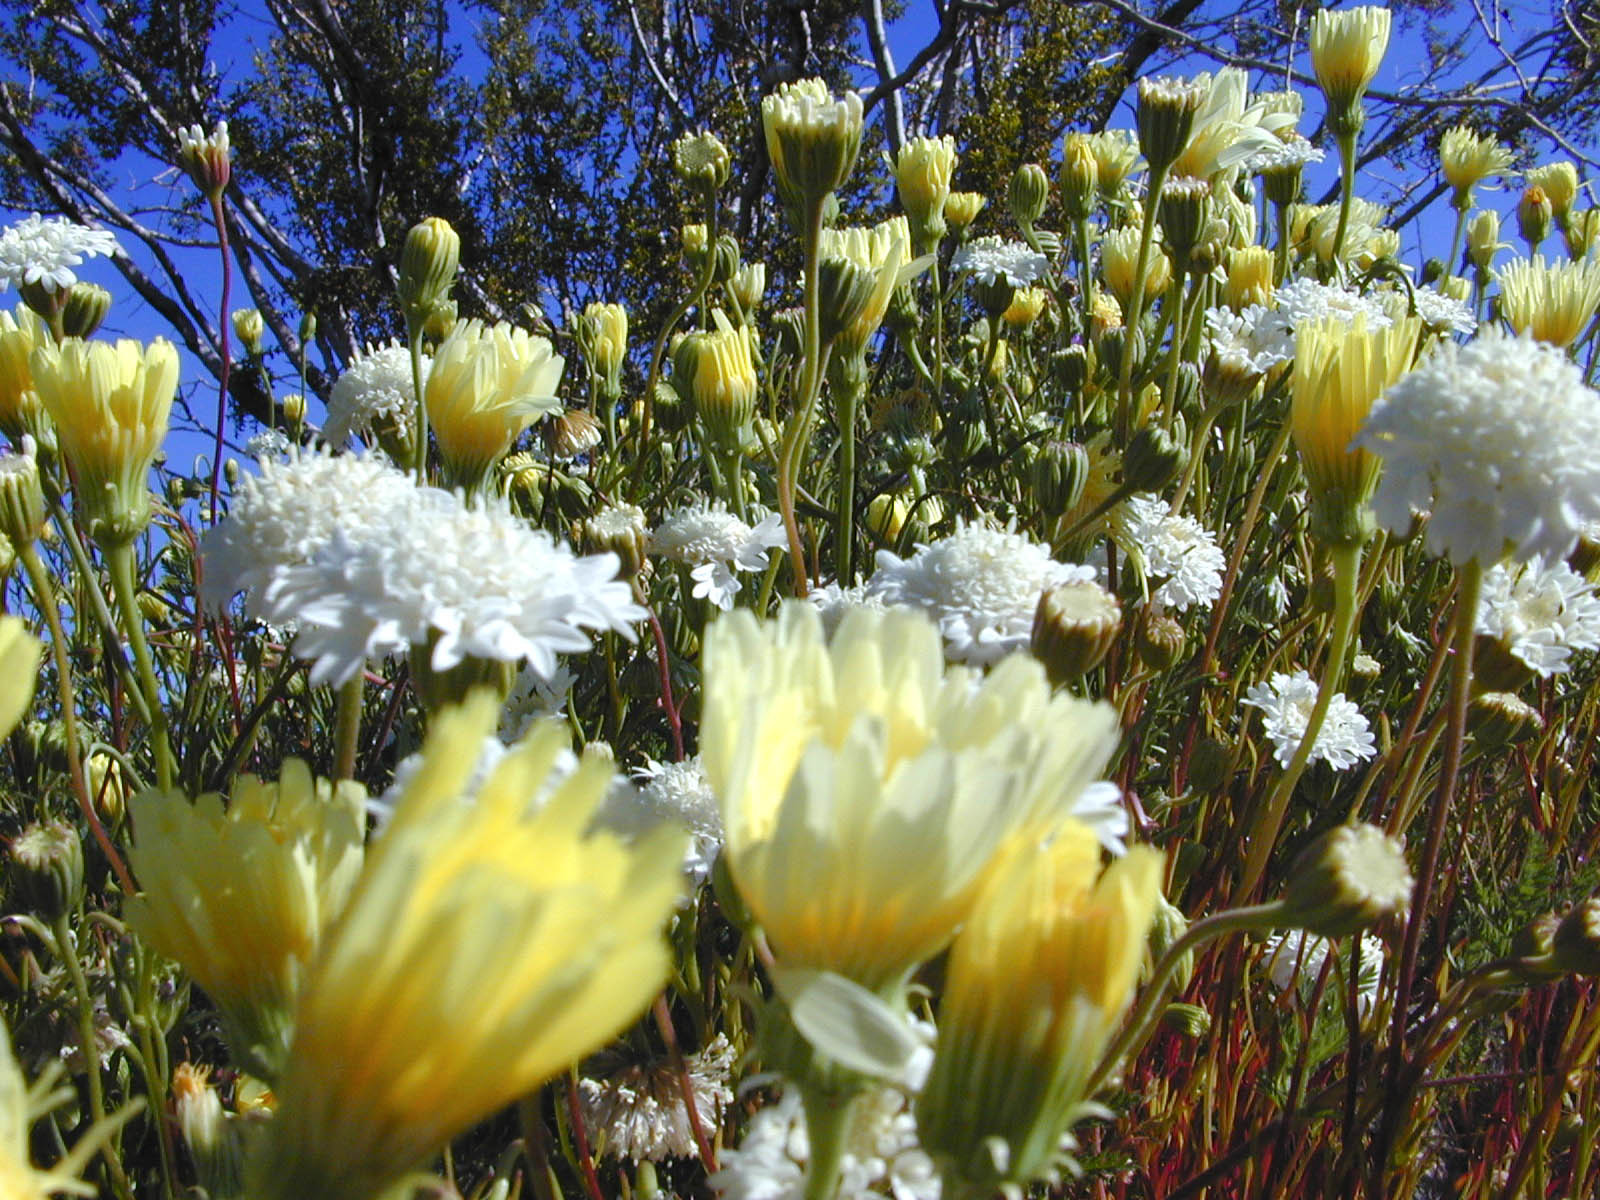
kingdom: Plantae
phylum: Tracheophyta
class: Magnoliopsida
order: Asterales
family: Asteraceae
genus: Malacothrix
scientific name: Malacothrix glabrata
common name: Smooth desert-dandelion
